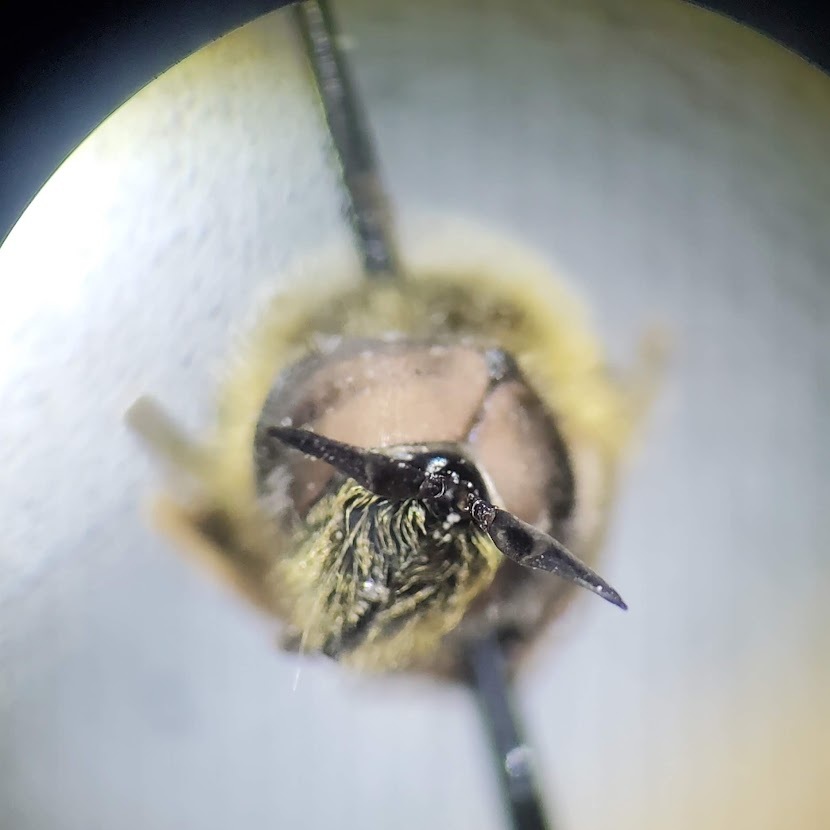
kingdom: Animalia
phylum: Arthropoda
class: Insecta
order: Diptera
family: Syrphidae
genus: Callicera
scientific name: Callicera erratica
